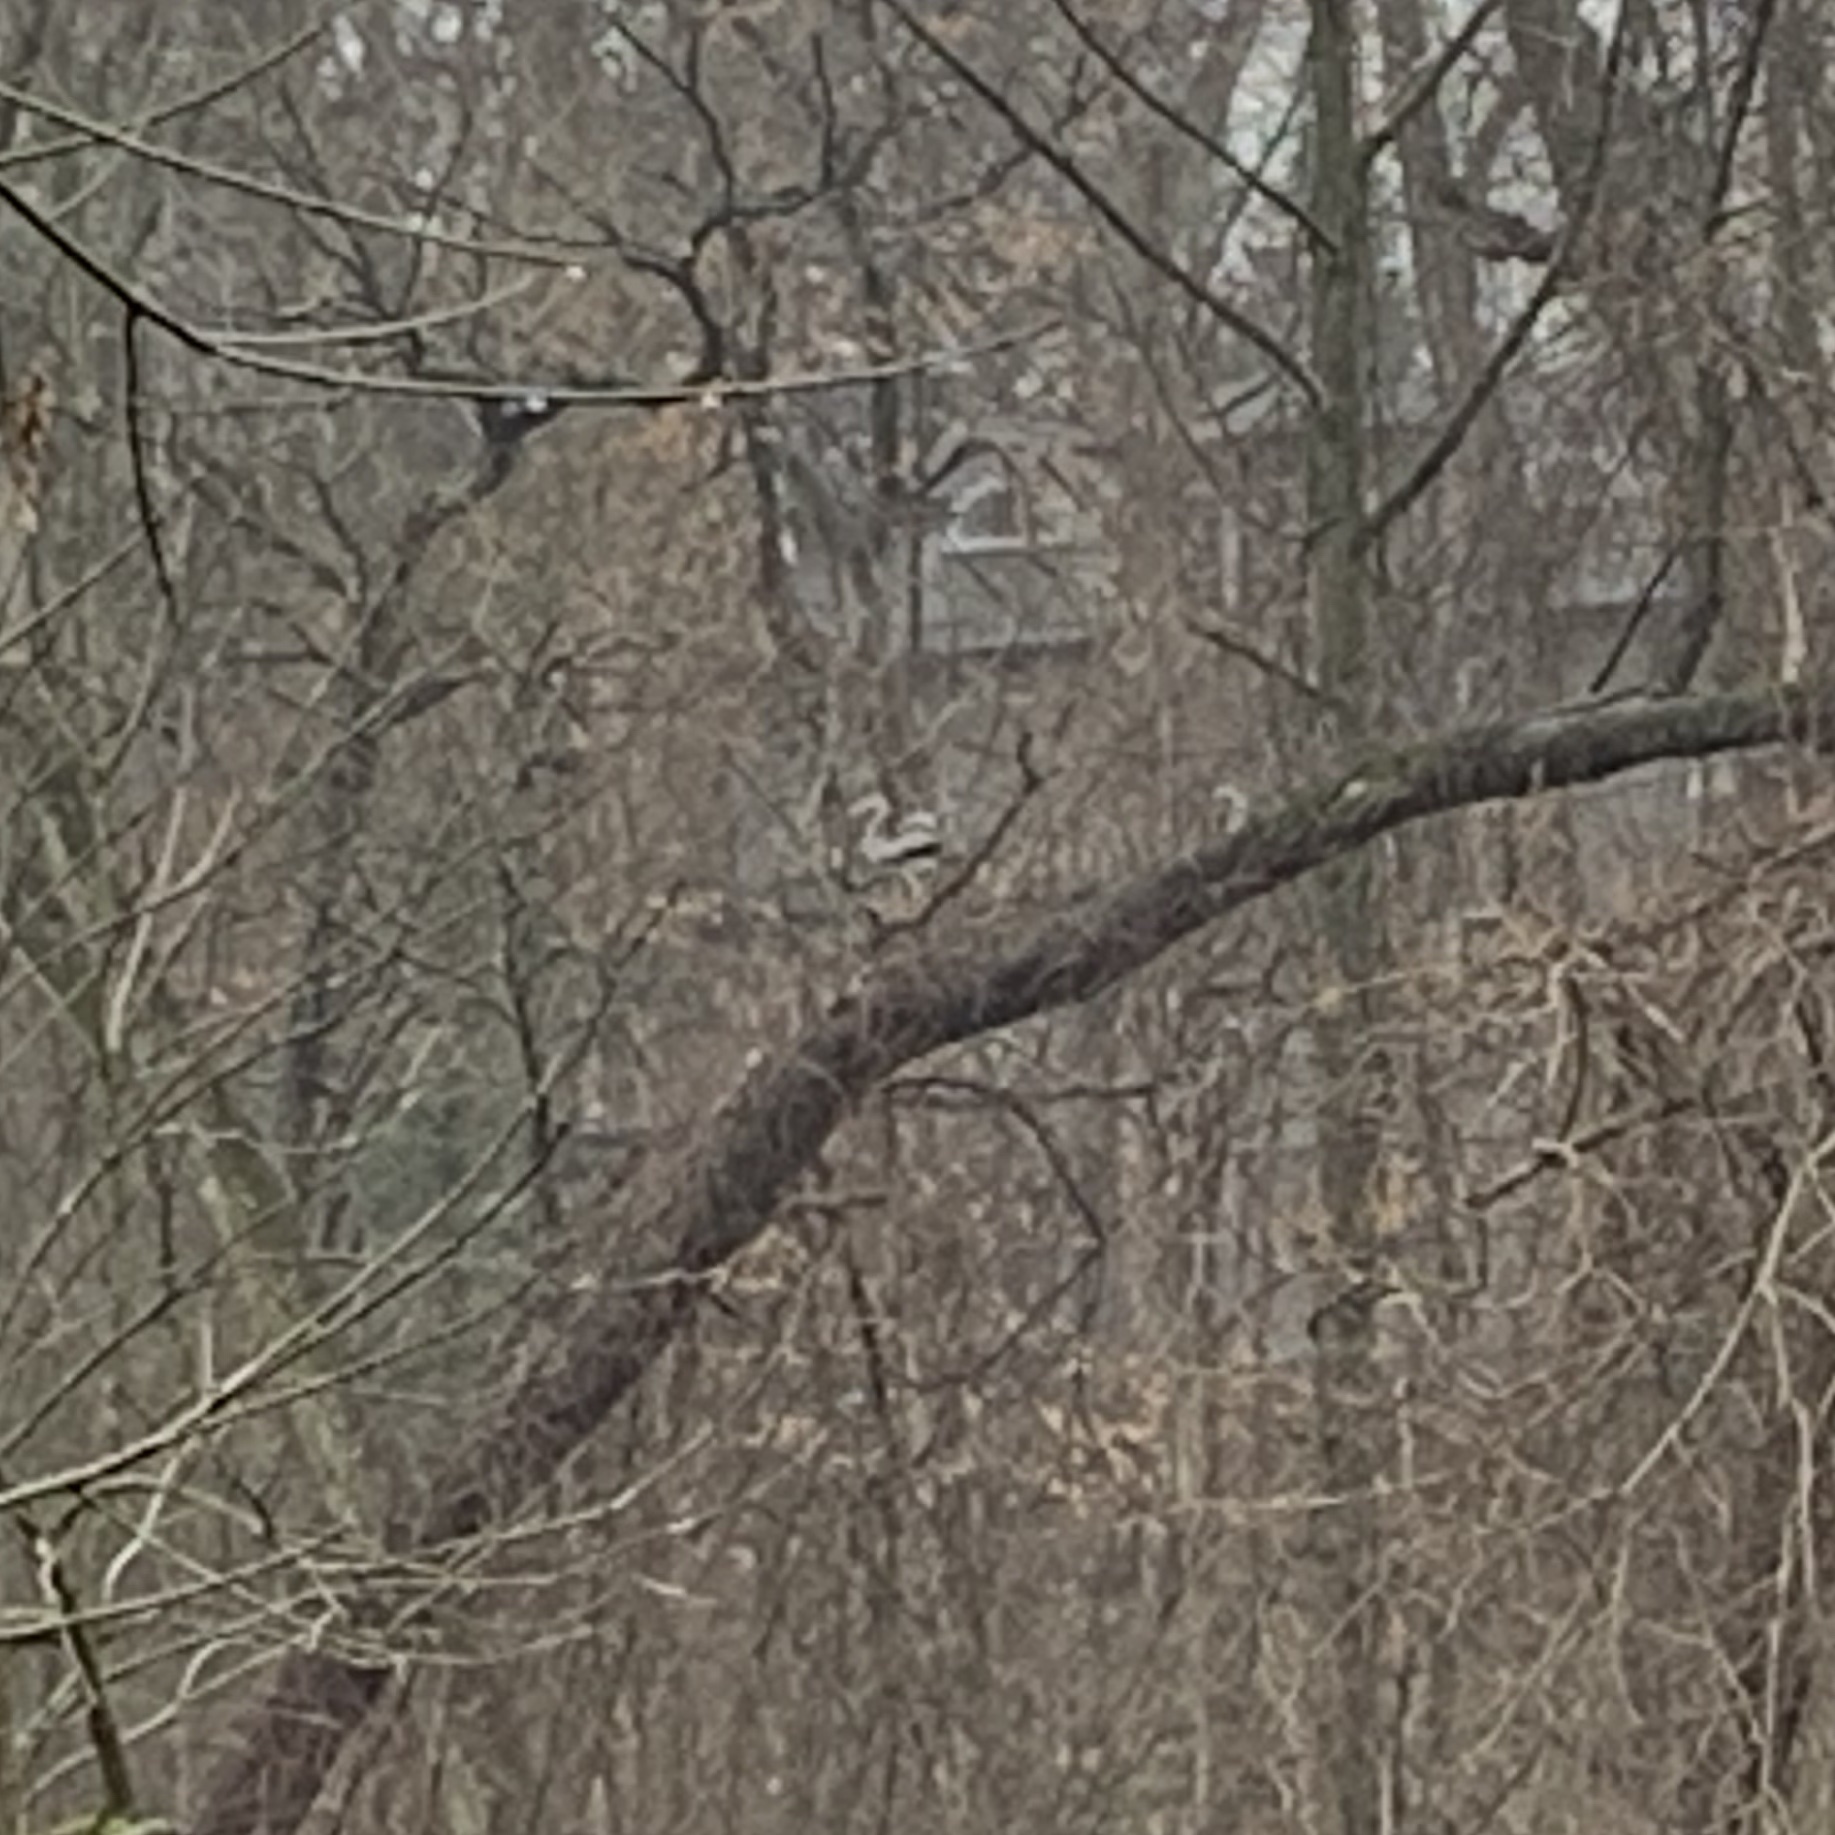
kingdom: Animalia
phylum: Chordata
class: Aves
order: Pelecaniformes
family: Ardeidae
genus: Ardea
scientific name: Ardea herodias
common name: Great blue heron
